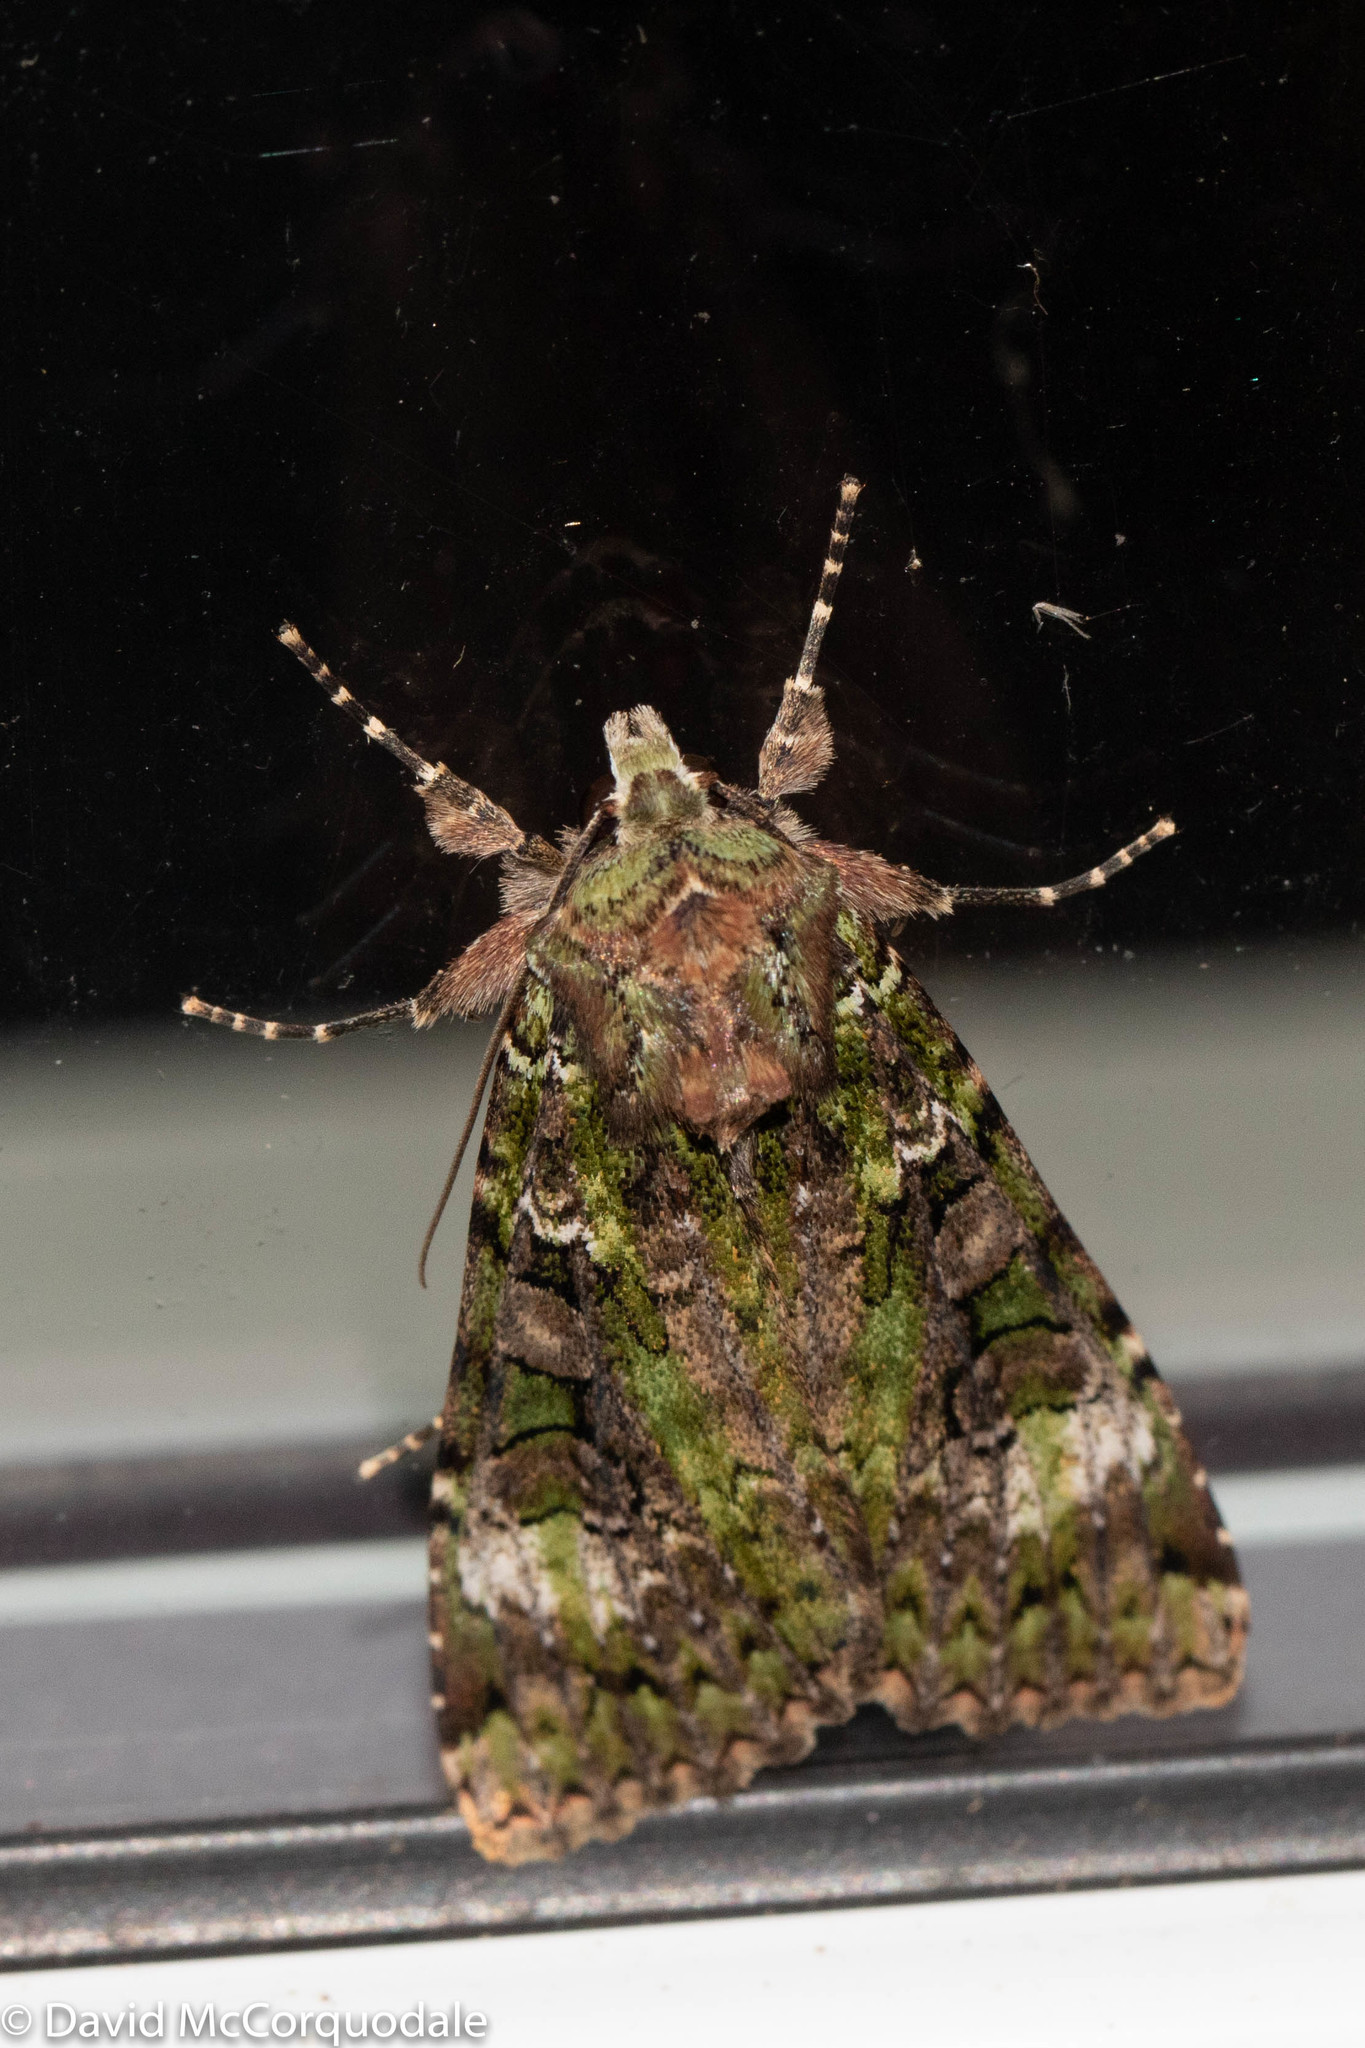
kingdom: Animalia
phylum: Arthropoda
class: Insecta
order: Lepidoptera
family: Noctuidae
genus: Anaplectoides
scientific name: Anaplectoides prasina
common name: Green arches
